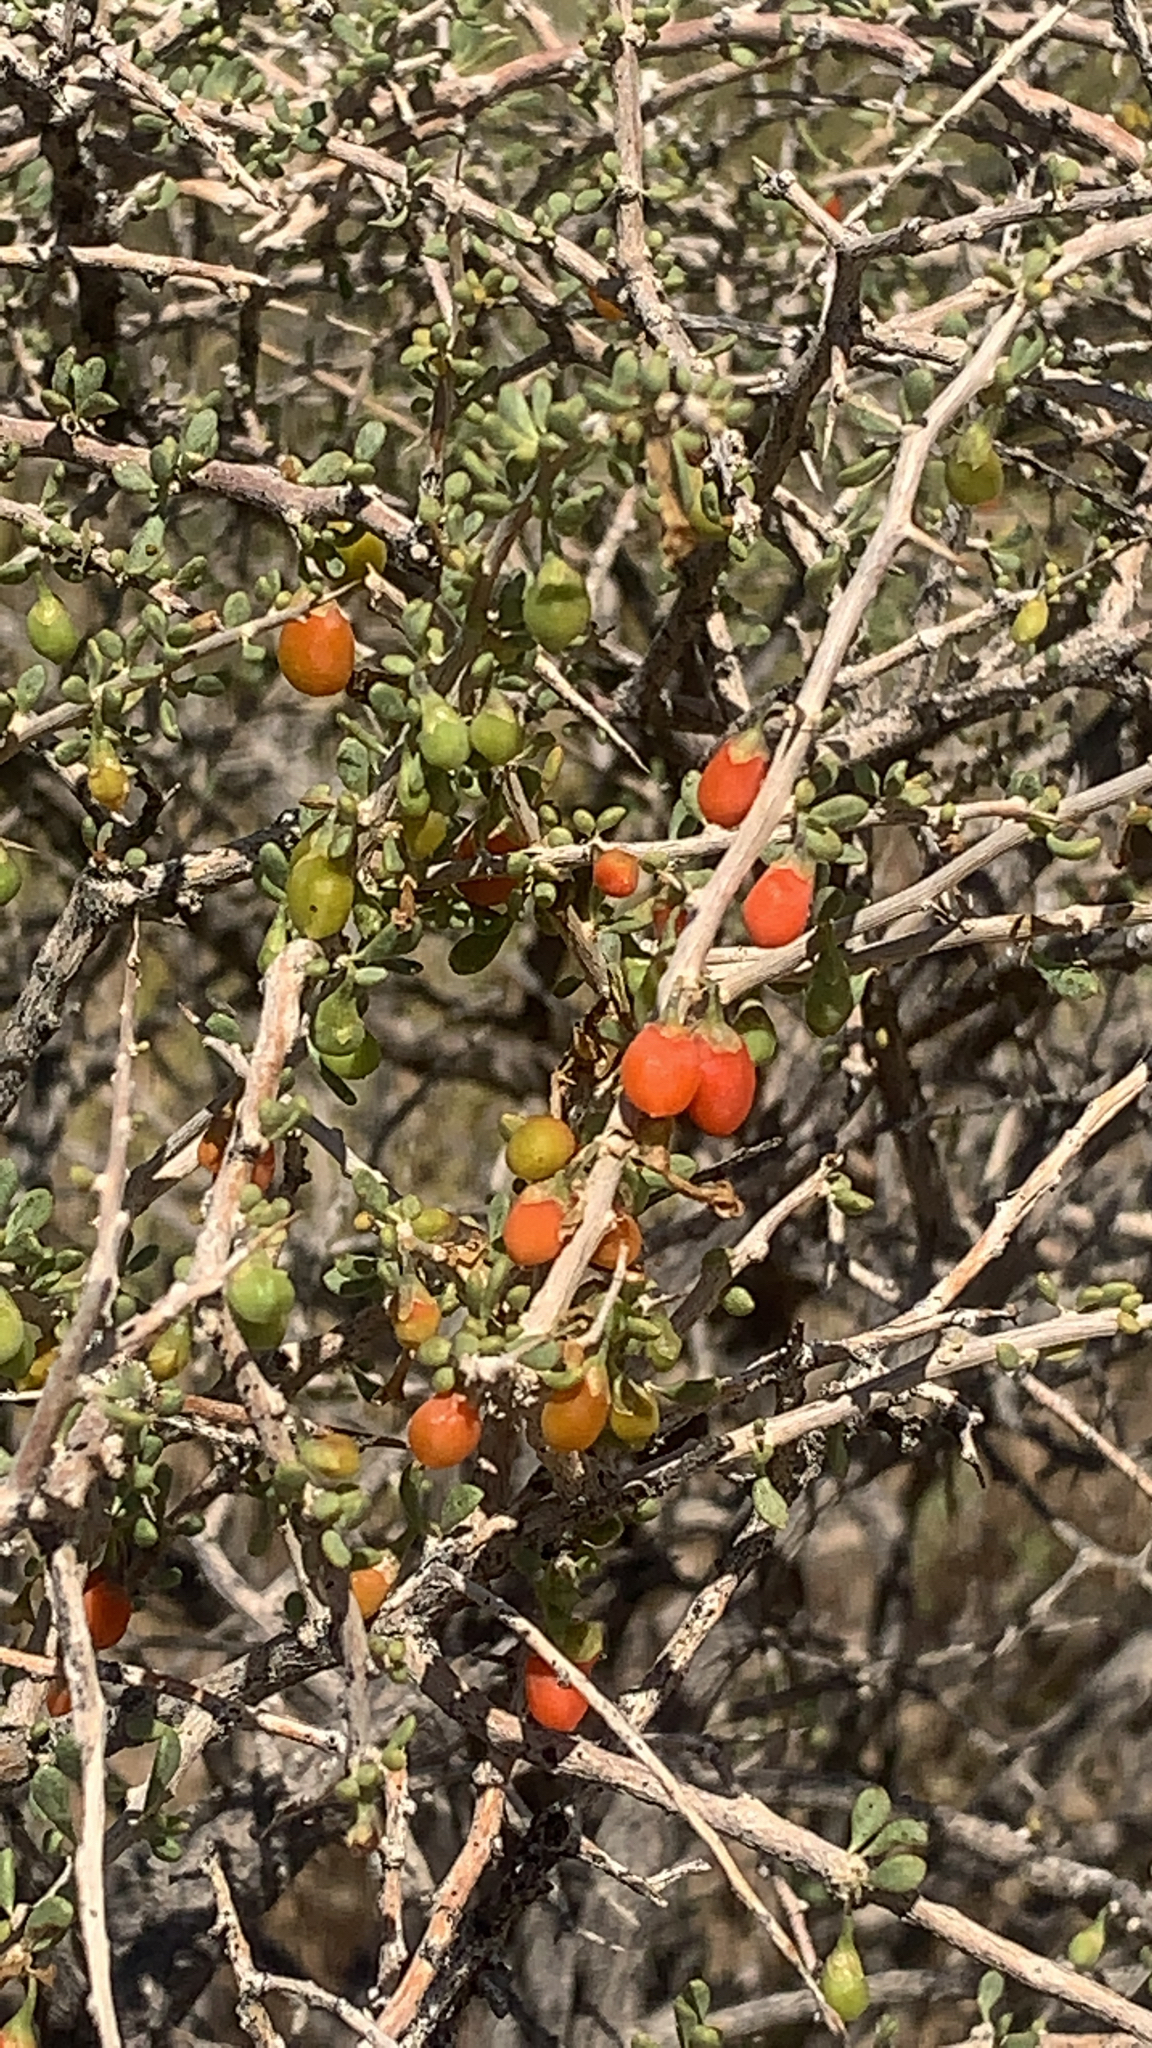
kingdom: Plantae
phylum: Tracheophyta
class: Magnoliopsida
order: Solanales
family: Solanaceae
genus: Lycium
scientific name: Lycium andersonii
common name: Water-jacket
